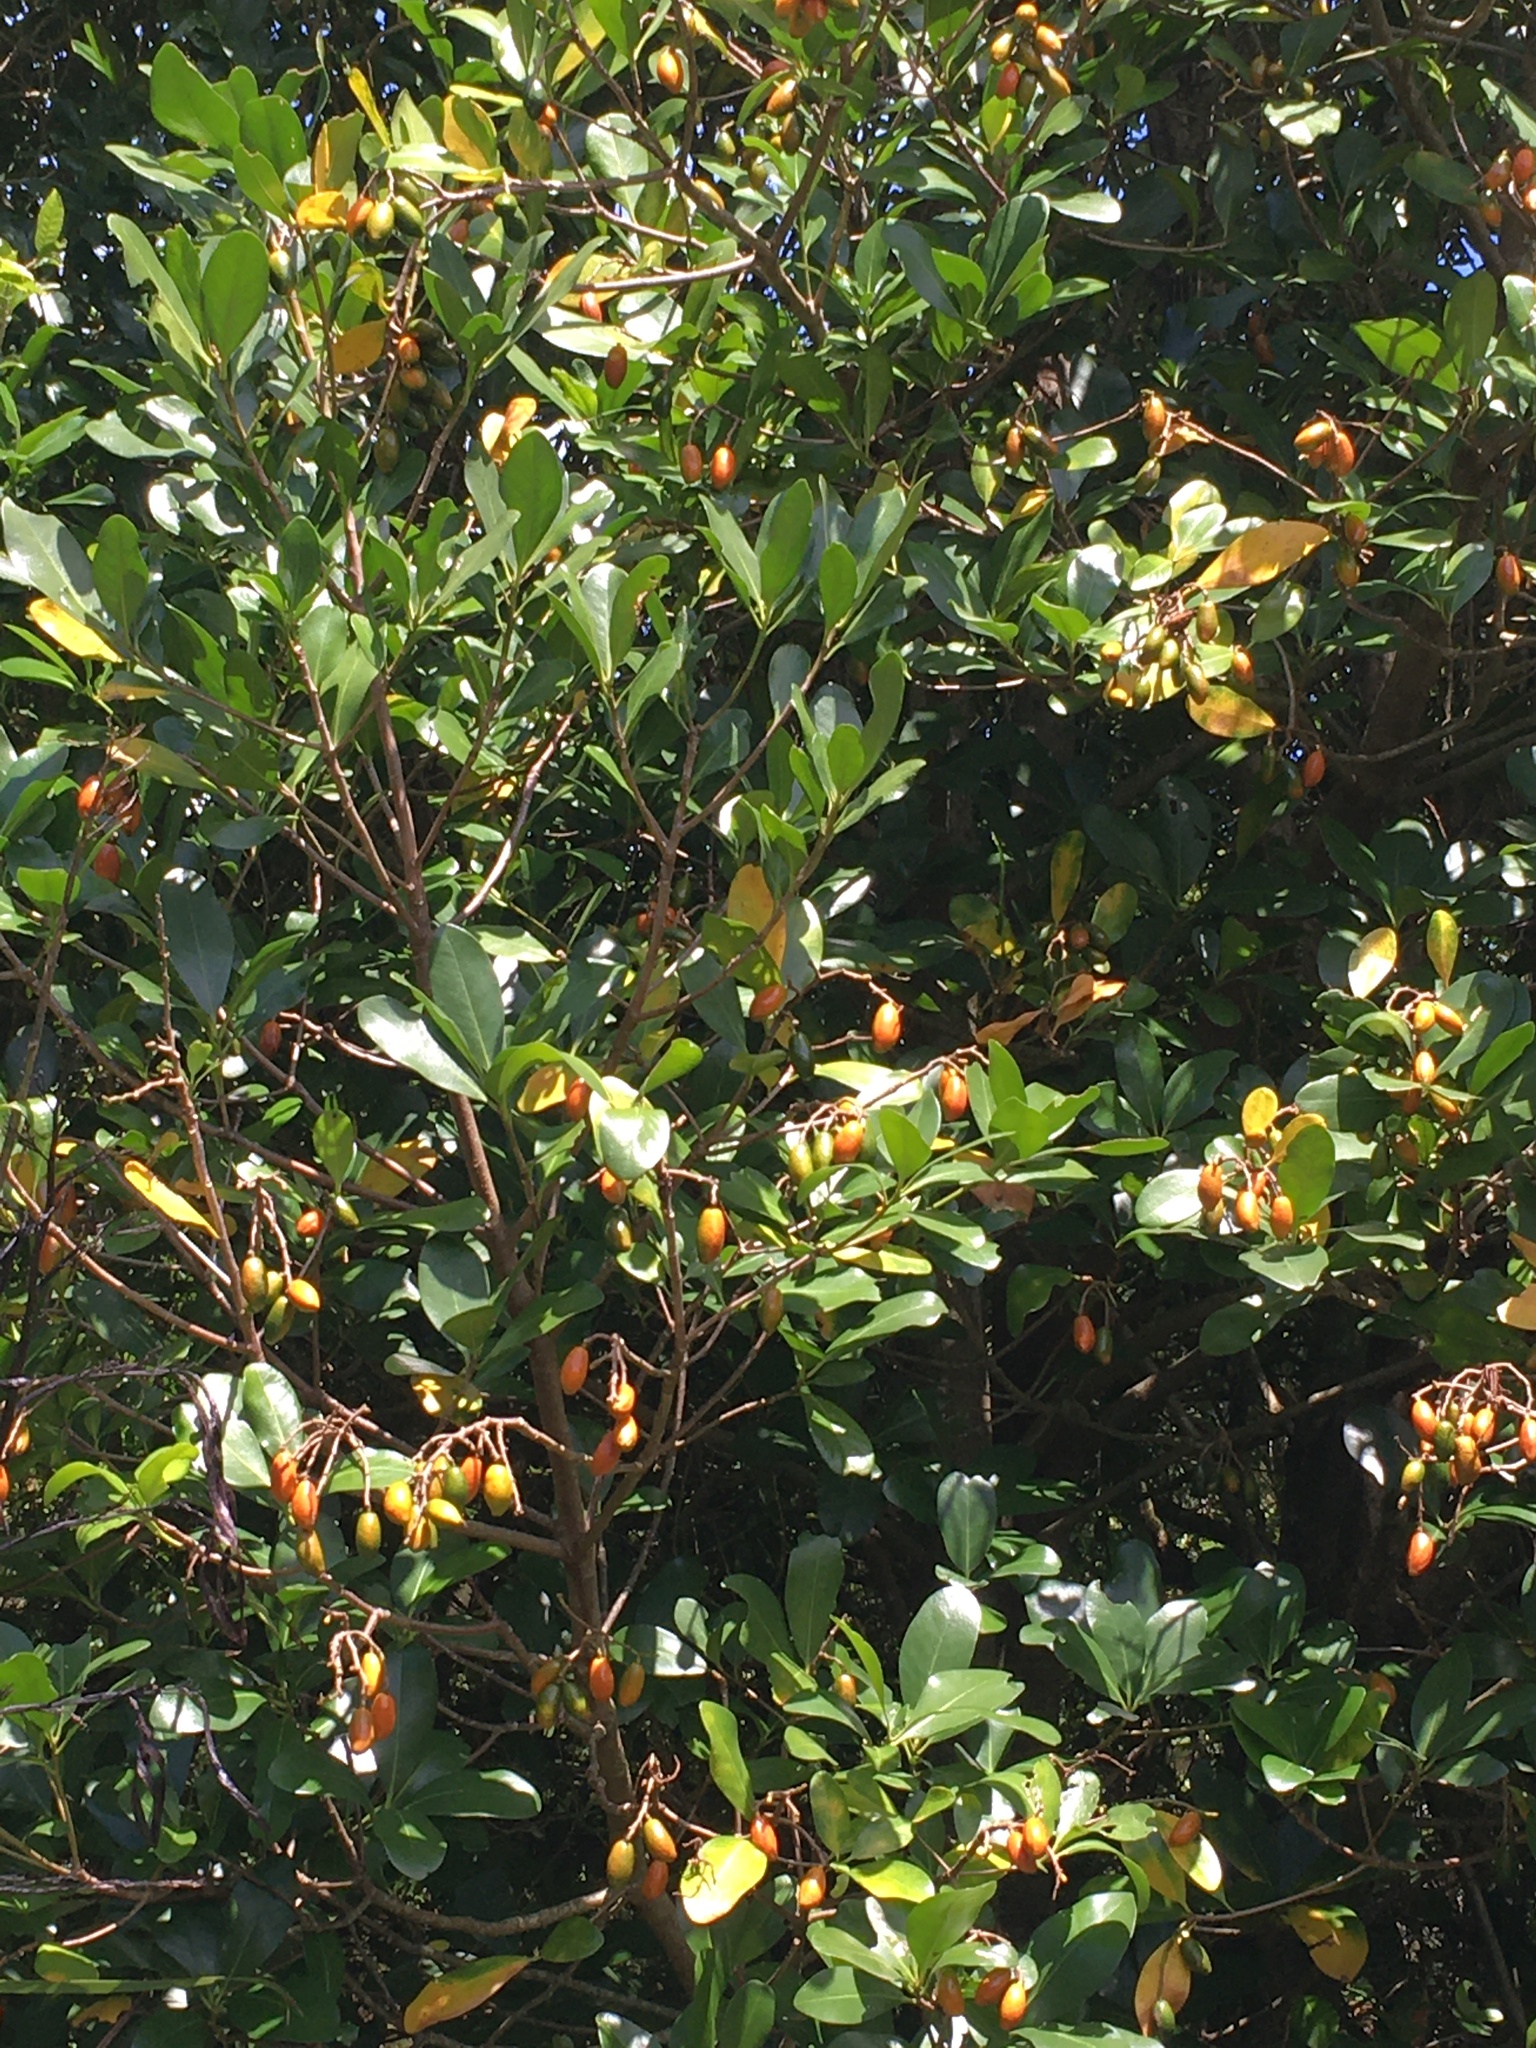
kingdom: Plantae
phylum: Tracheophyta
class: Magnoliopsida
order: Cucurbitales
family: Corynocarpaceae
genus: Corynocarpus
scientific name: Corynocarpus laevigatus
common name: New zealand laurel
